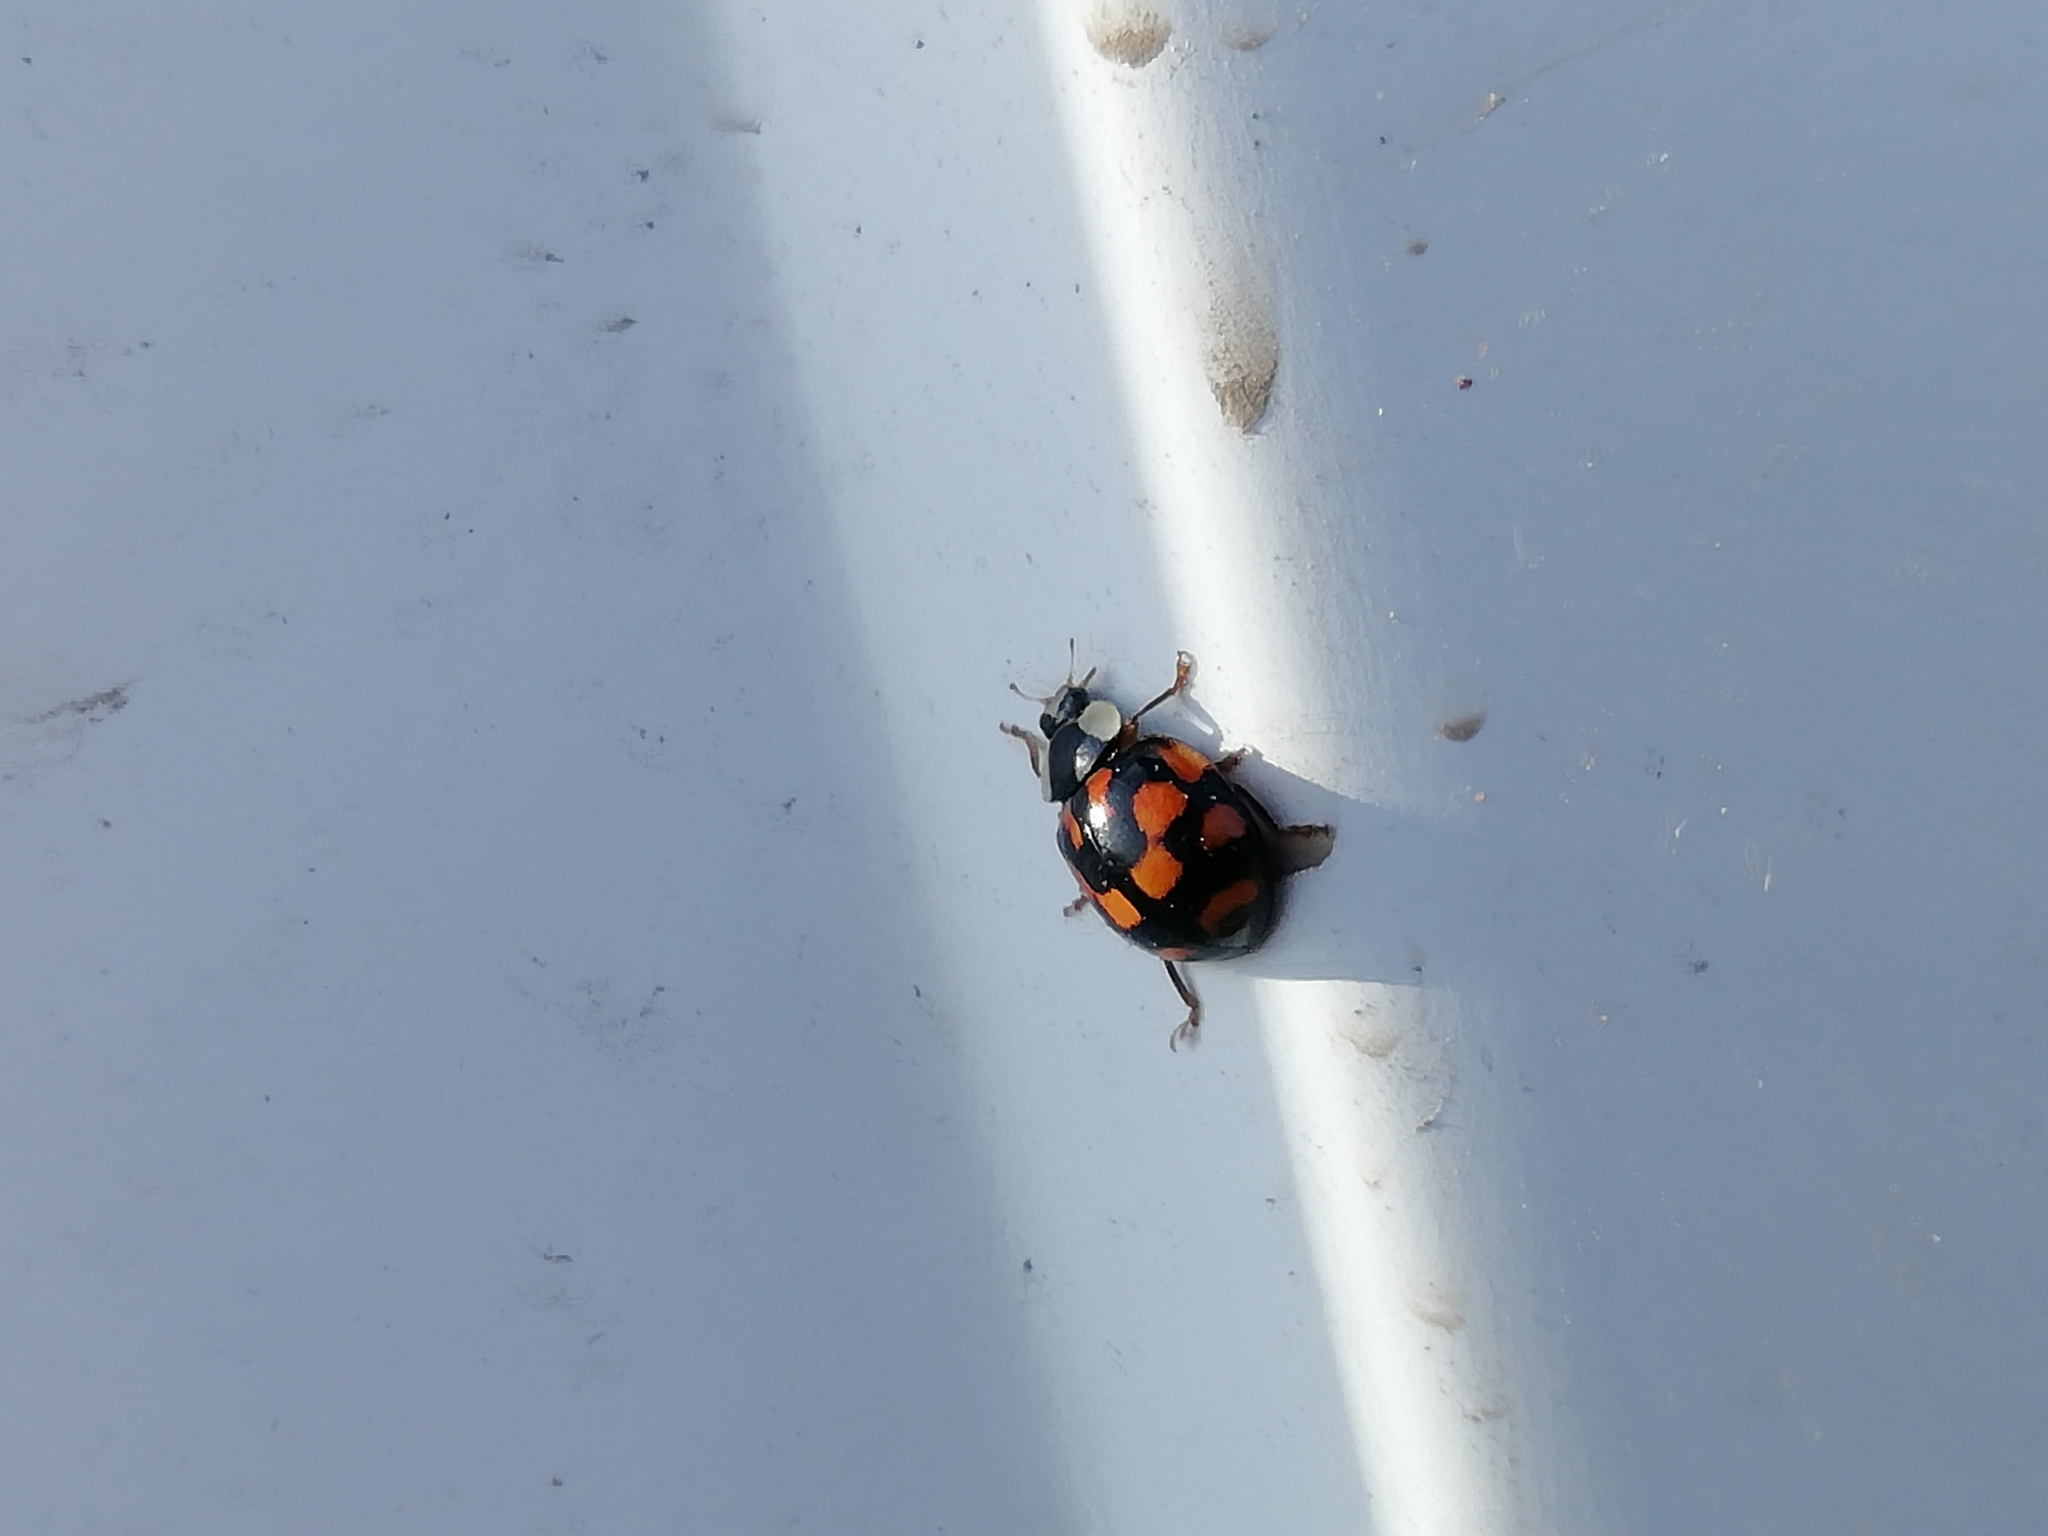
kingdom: Animalia
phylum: Arthropoda
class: Insecta
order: Coleoptera
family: Coccinellidae
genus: Harmonia
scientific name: Harmonia axyridis
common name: Harlequin ladybird
